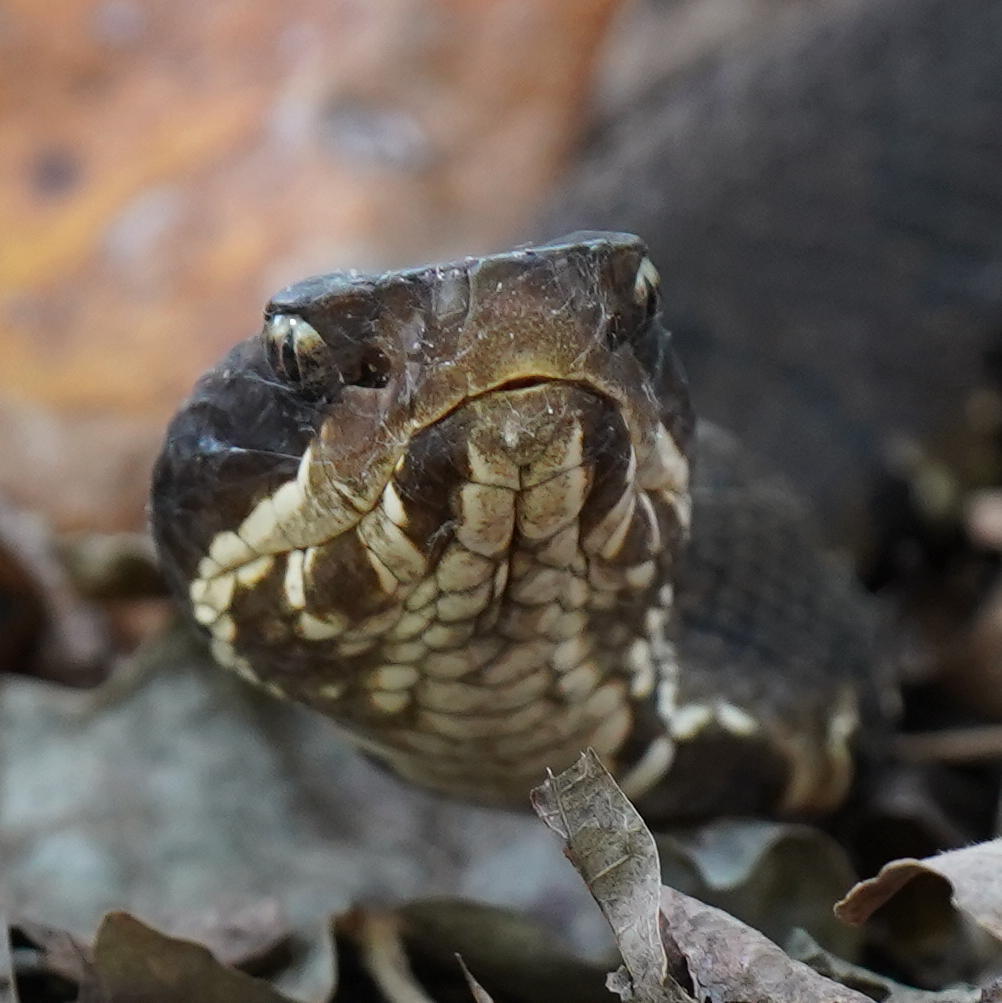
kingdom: Animalia
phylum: Chordata
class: Squamata
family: Viperidae
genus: Agkistrodon
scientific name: Agkistrodon piscivorus
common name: Cottonmouth
